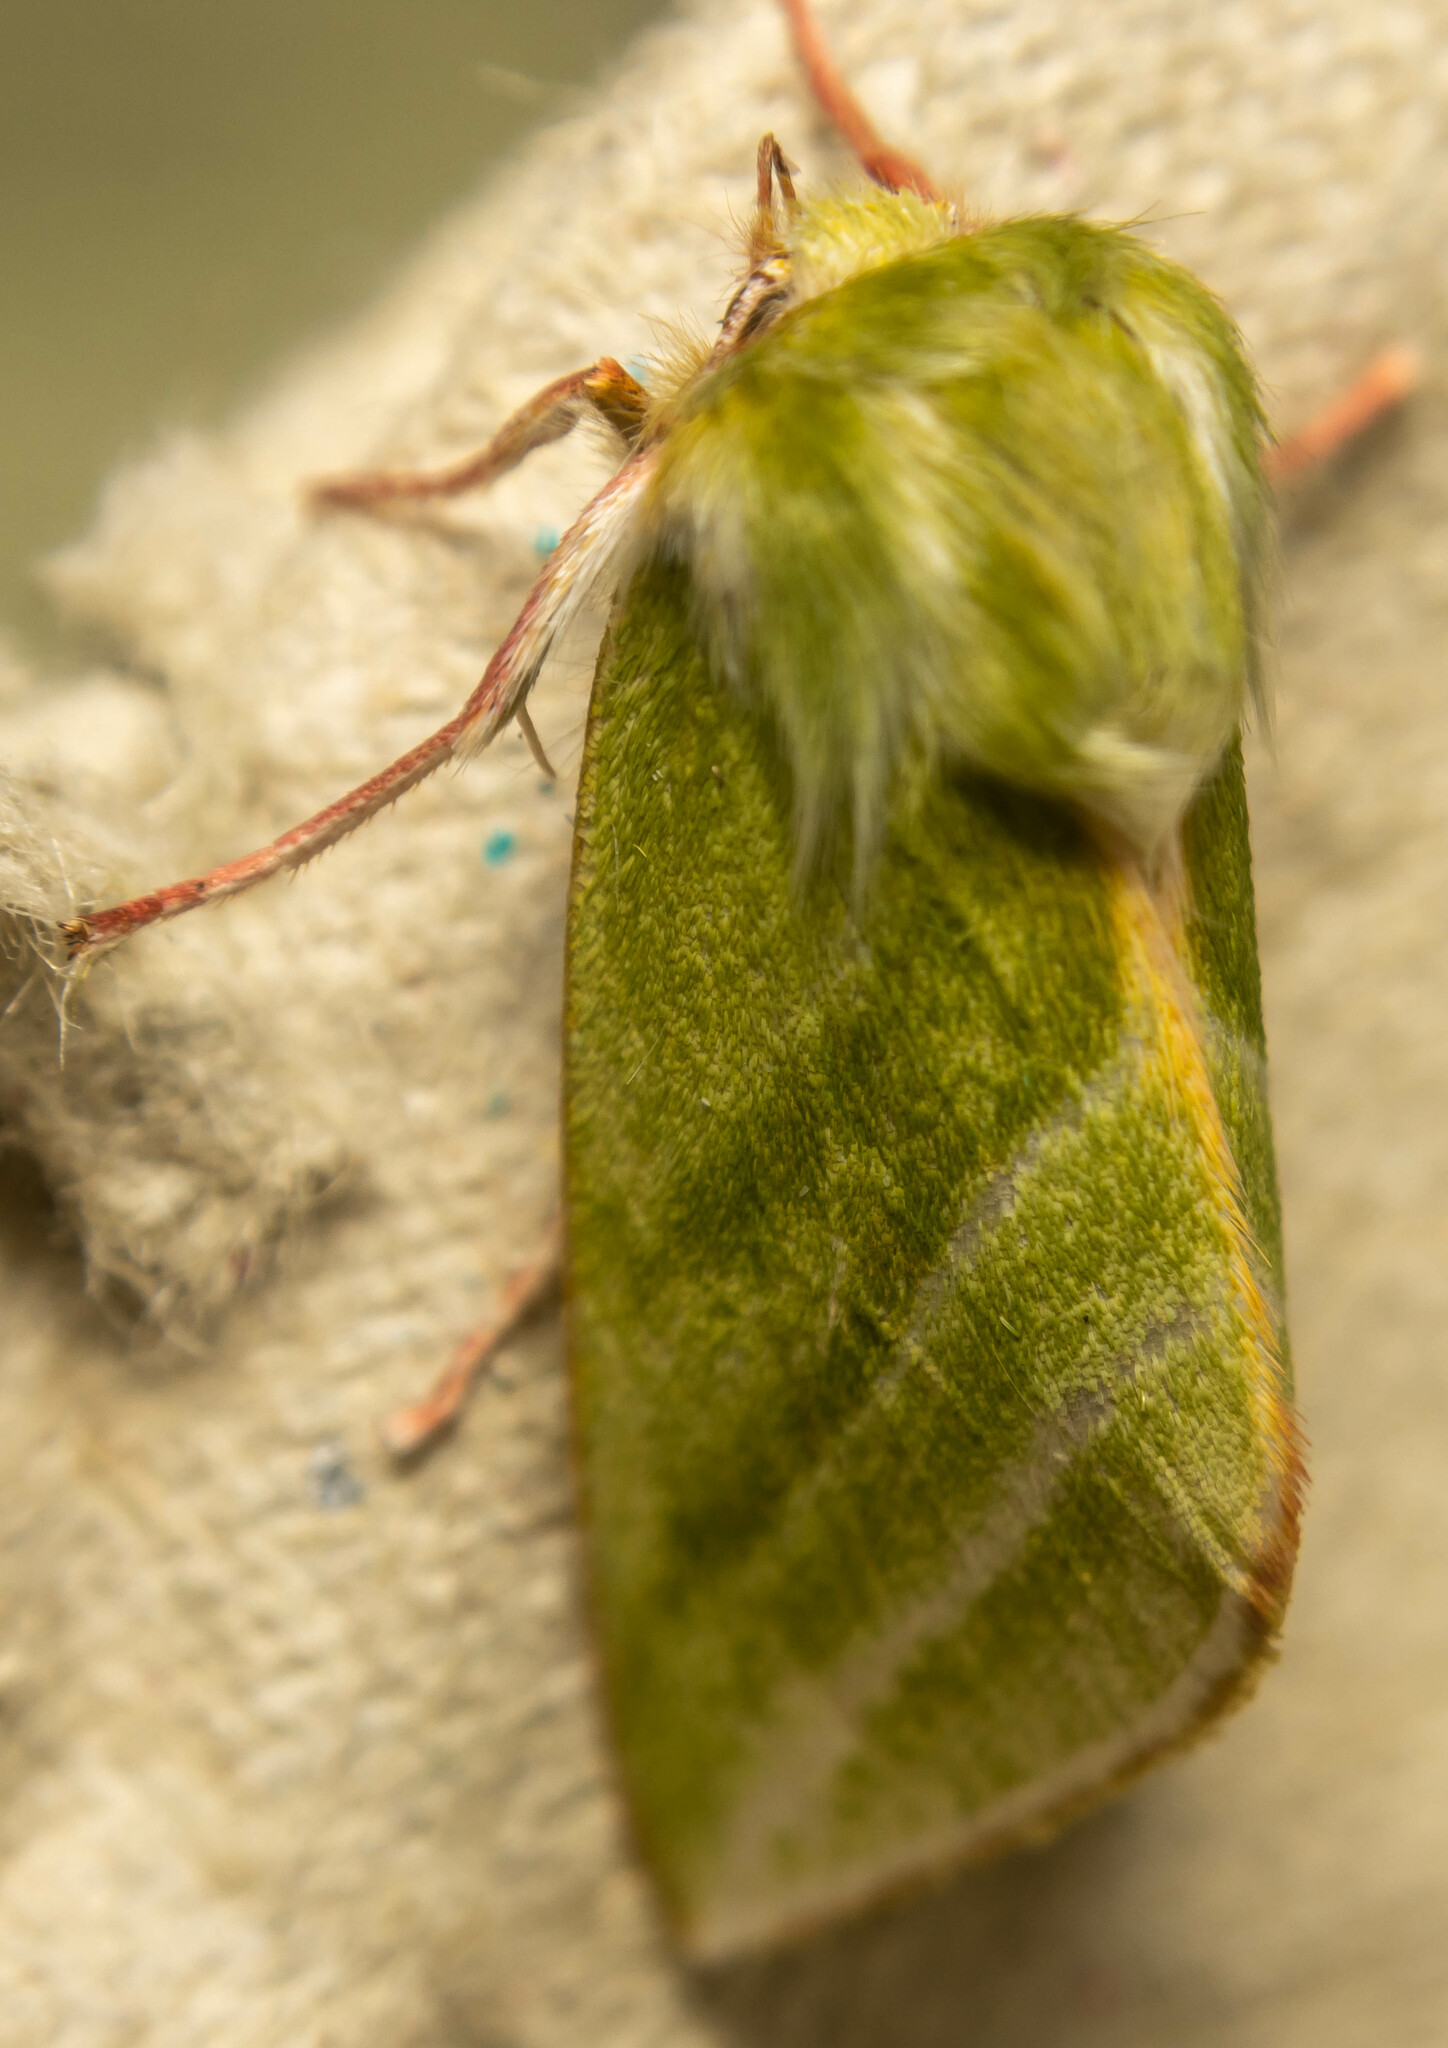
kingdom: Animalia
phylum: Arthropoda
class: Insecta
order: Lepidoptera
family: Nolidae
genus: Pseudoips
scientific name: Pseudoips prasinana
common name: Green silver-lines
